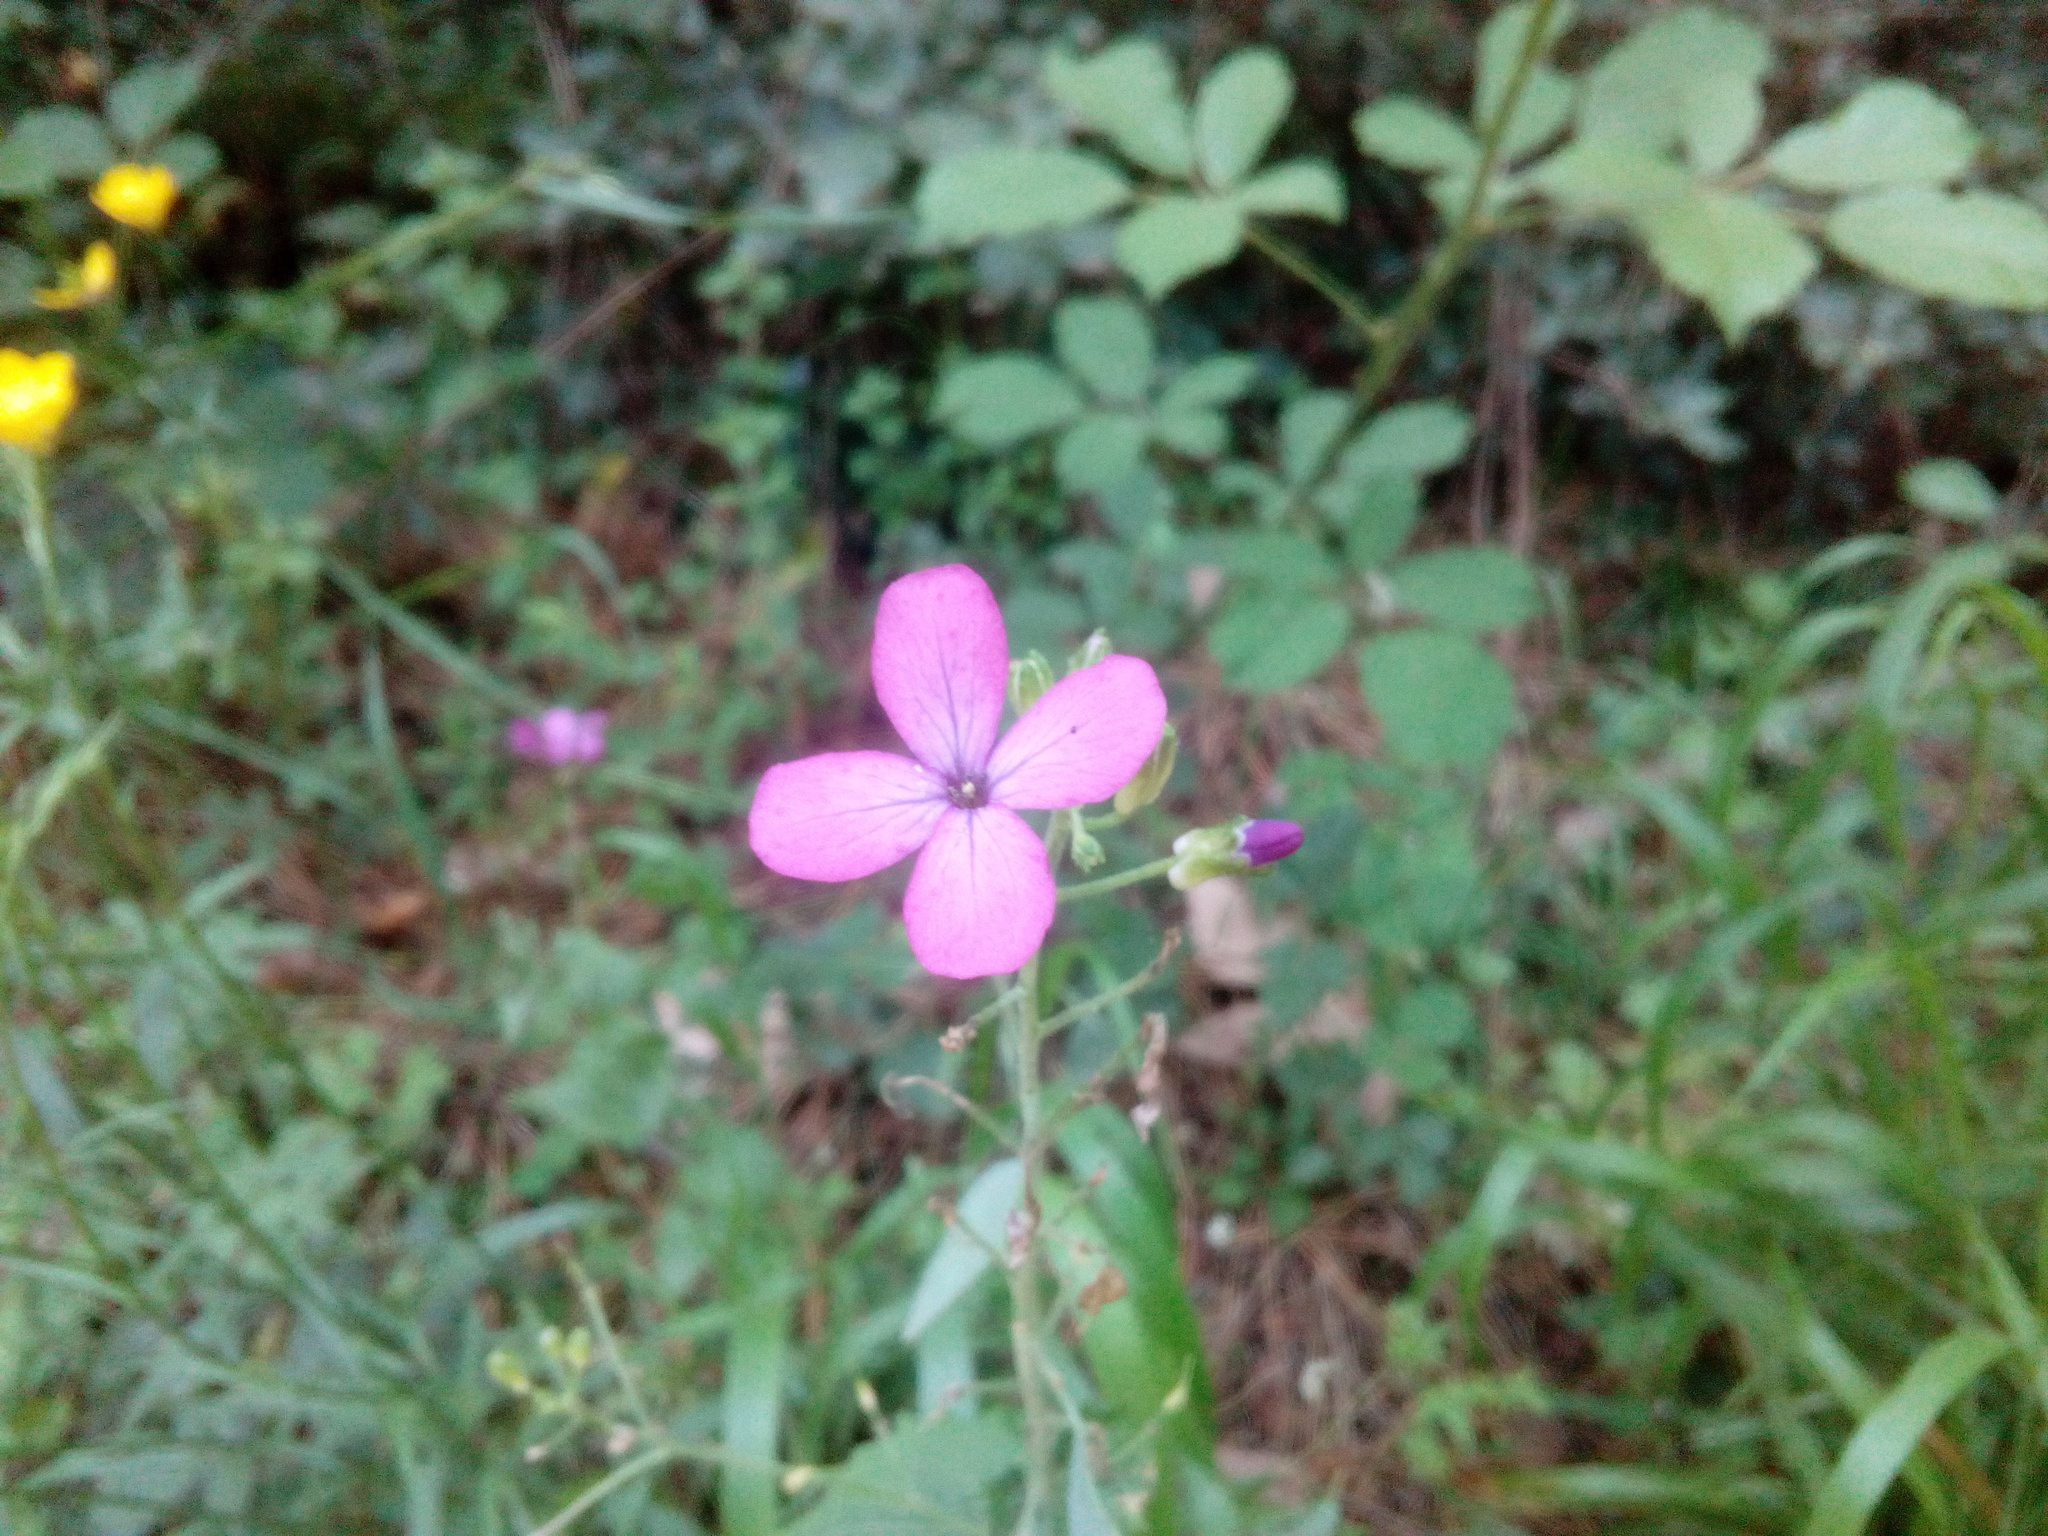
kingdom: Plantae
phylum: Tracheophyta
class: Magnoliopsida
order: Brassicales
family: Brassicaceae
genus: Lunaria
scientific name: Lunaria annua
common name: Honesty
